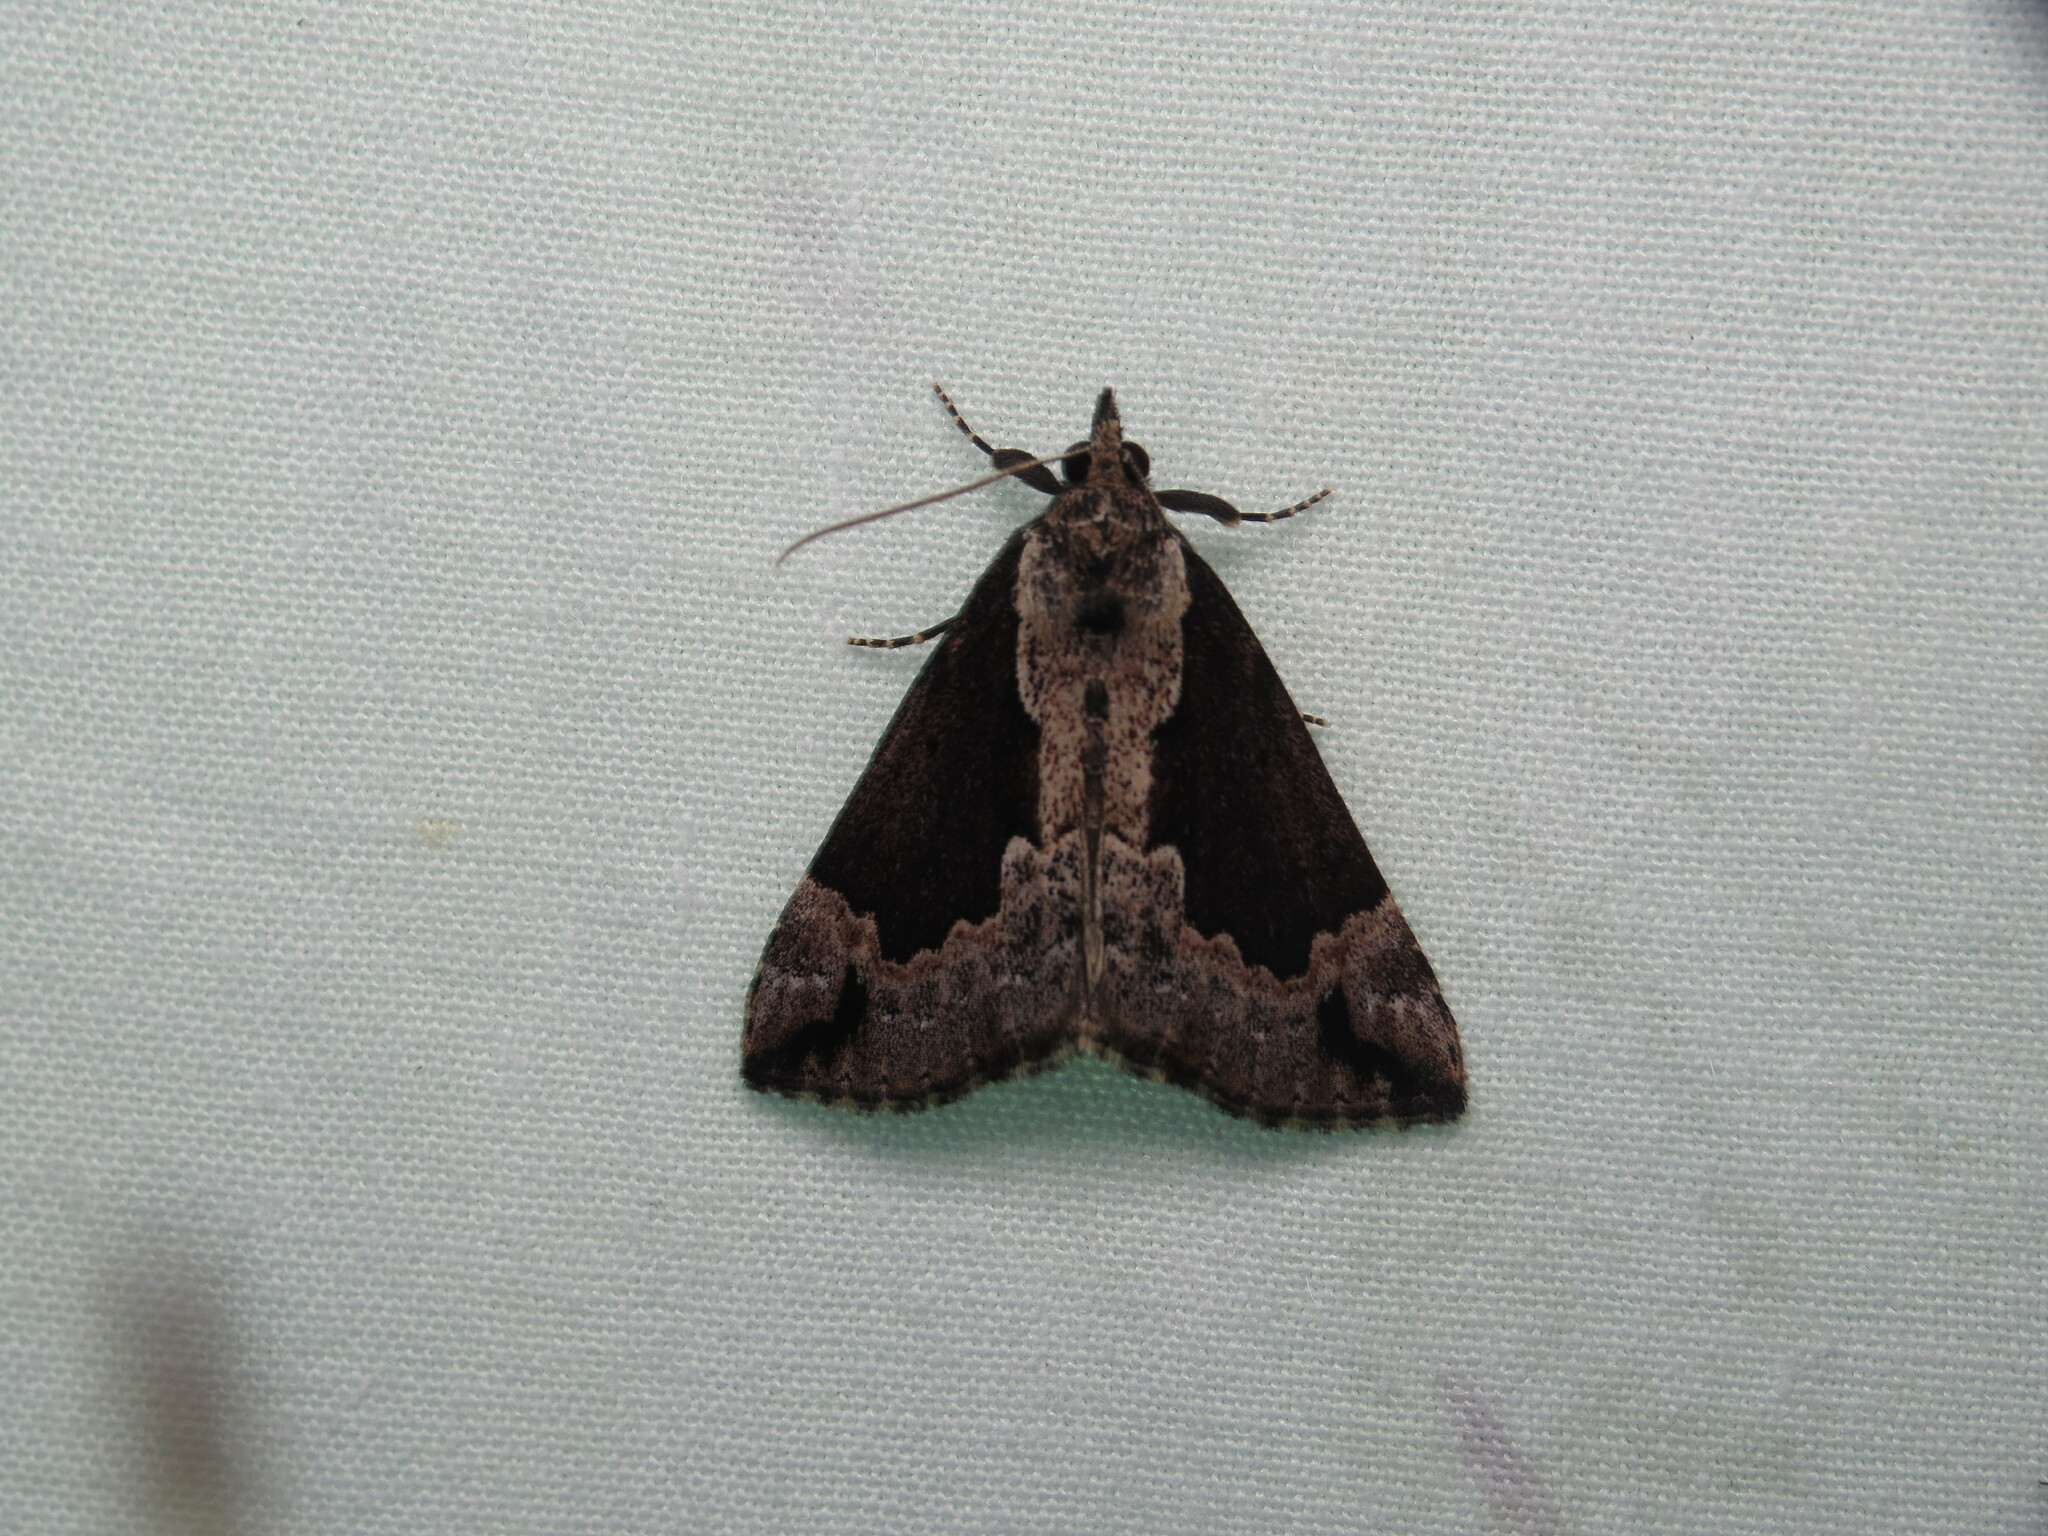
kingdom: Animalia
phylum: Arthropoda
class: Insecta
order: Lepidoptera
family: Erebidae
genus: Hypena
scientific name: Hypena baltimoralis
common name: Baltimore snout
